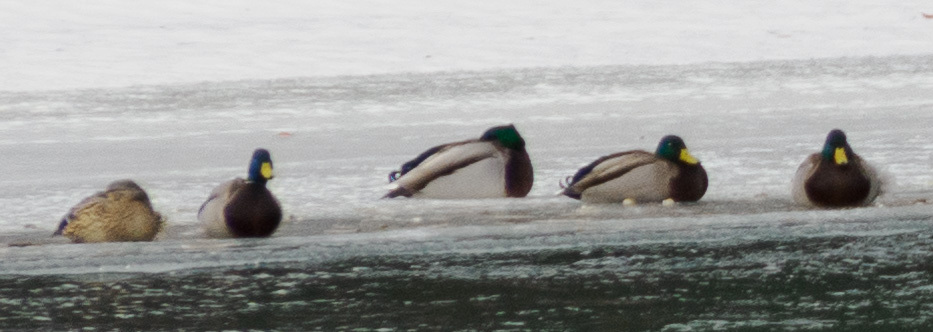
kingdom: Animalia
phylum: Chordata
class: Aves
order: Anseriformes
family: Anatidae
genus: Anas
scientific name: Anas platyrhynchos
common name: Mallard
